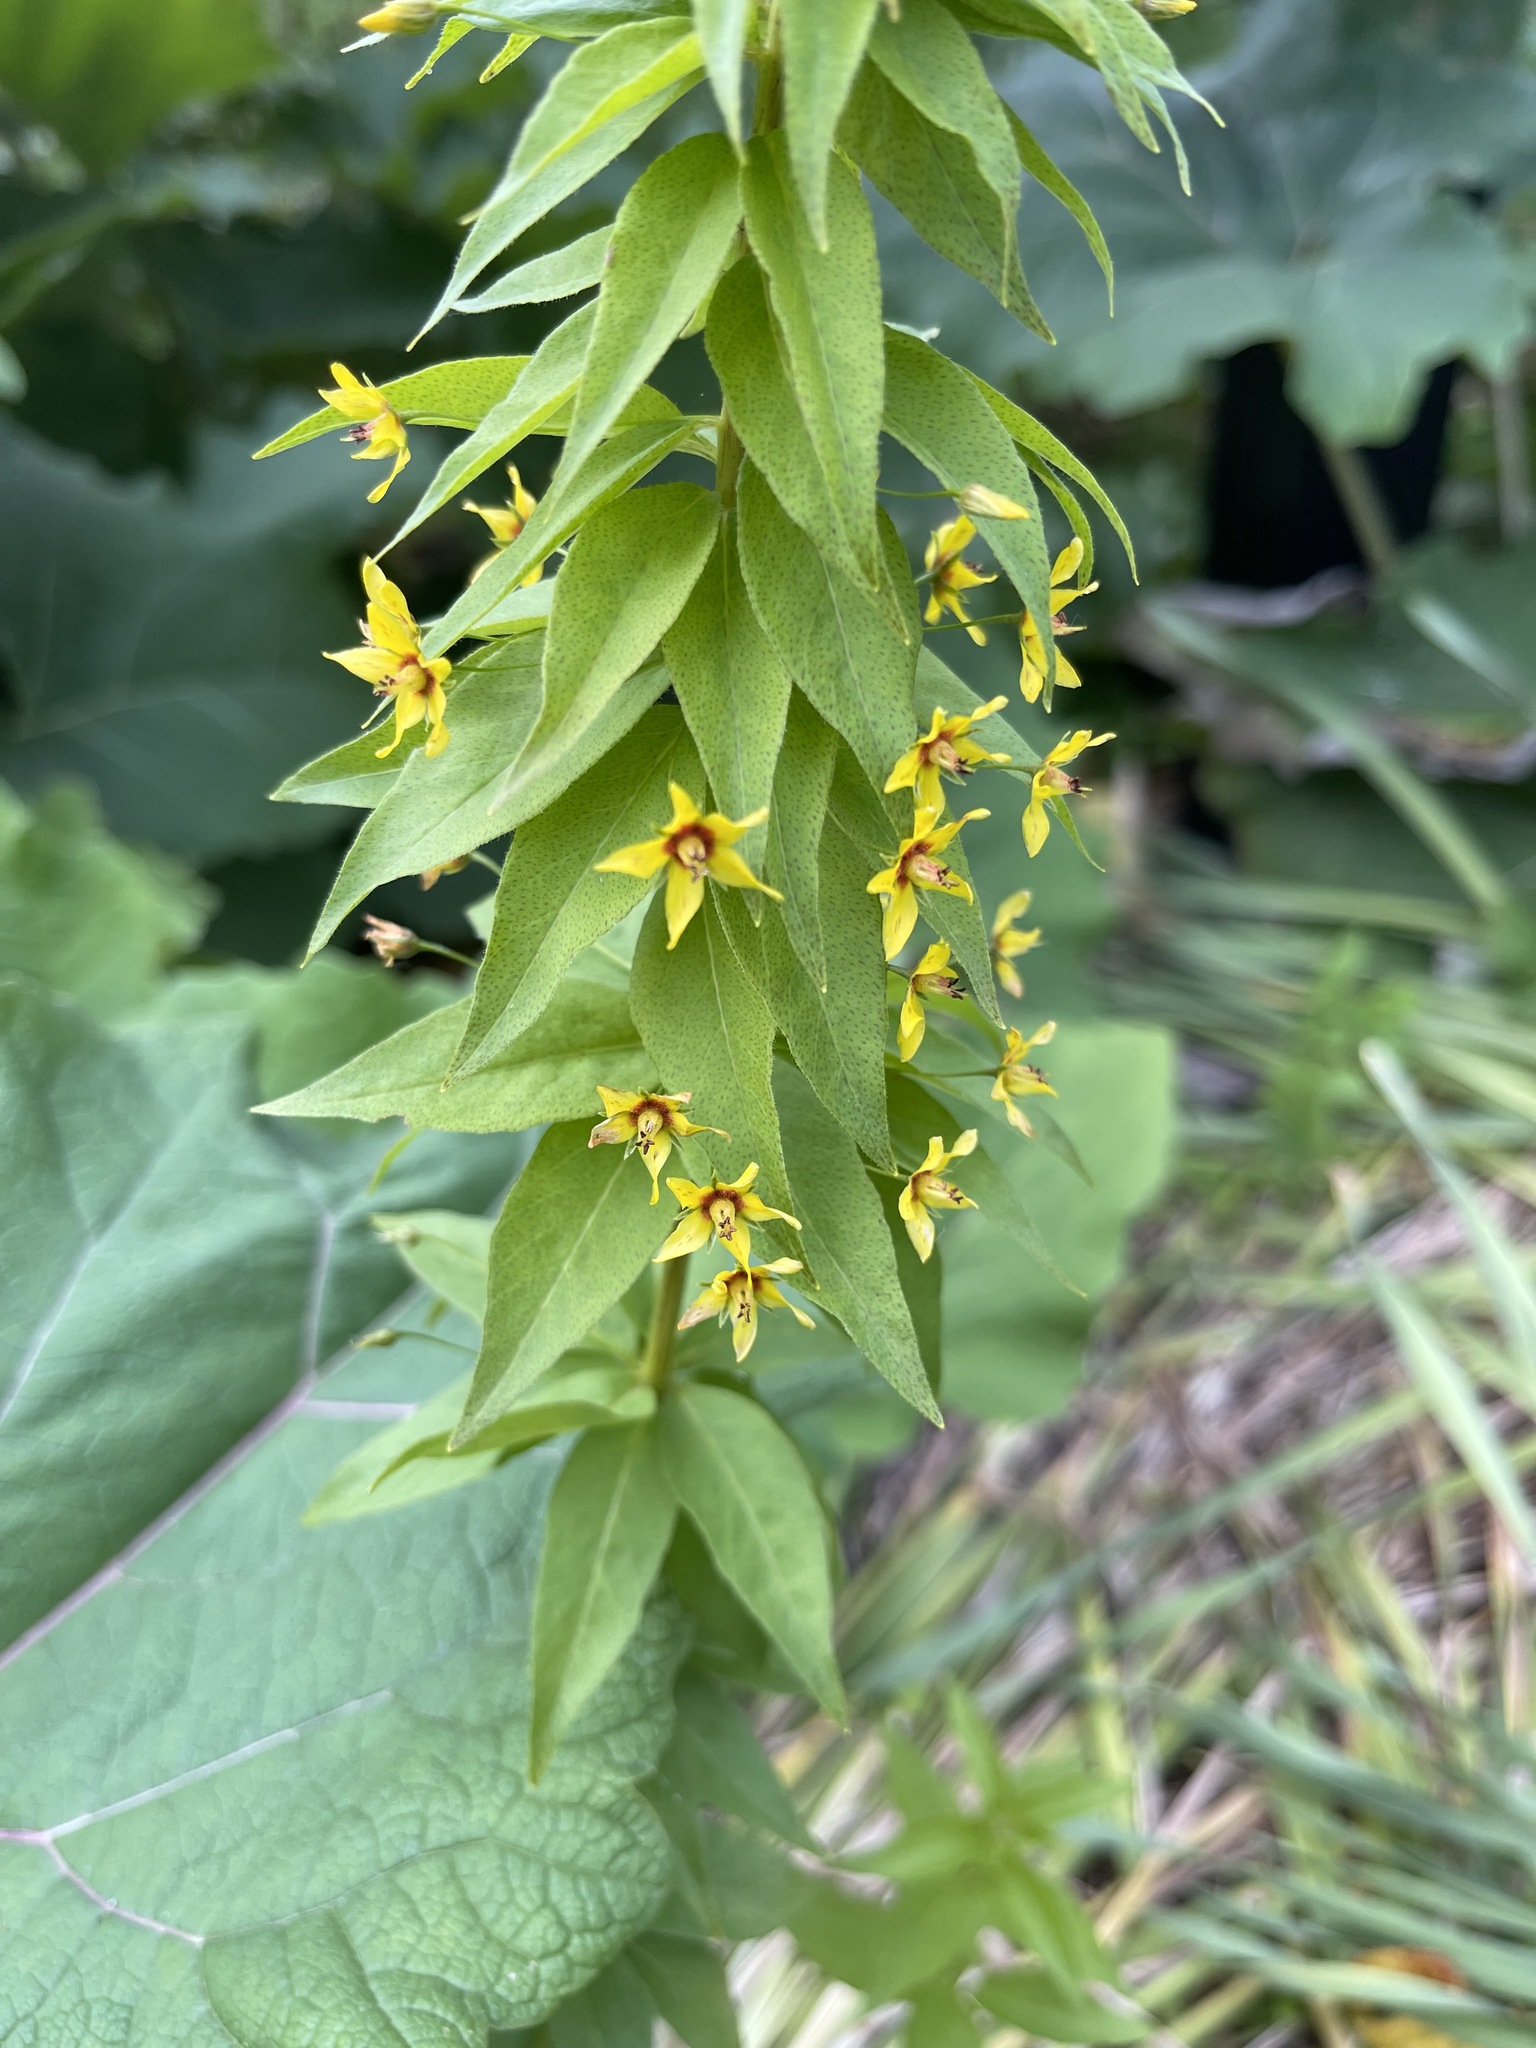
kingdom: Plantae
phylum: Tracheophyta
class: Magnoliopsida
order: Ericales
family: Primulaceae
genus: Lysimachia
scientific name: Lysimachia quadrifolia
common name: Whorled loosestrife
